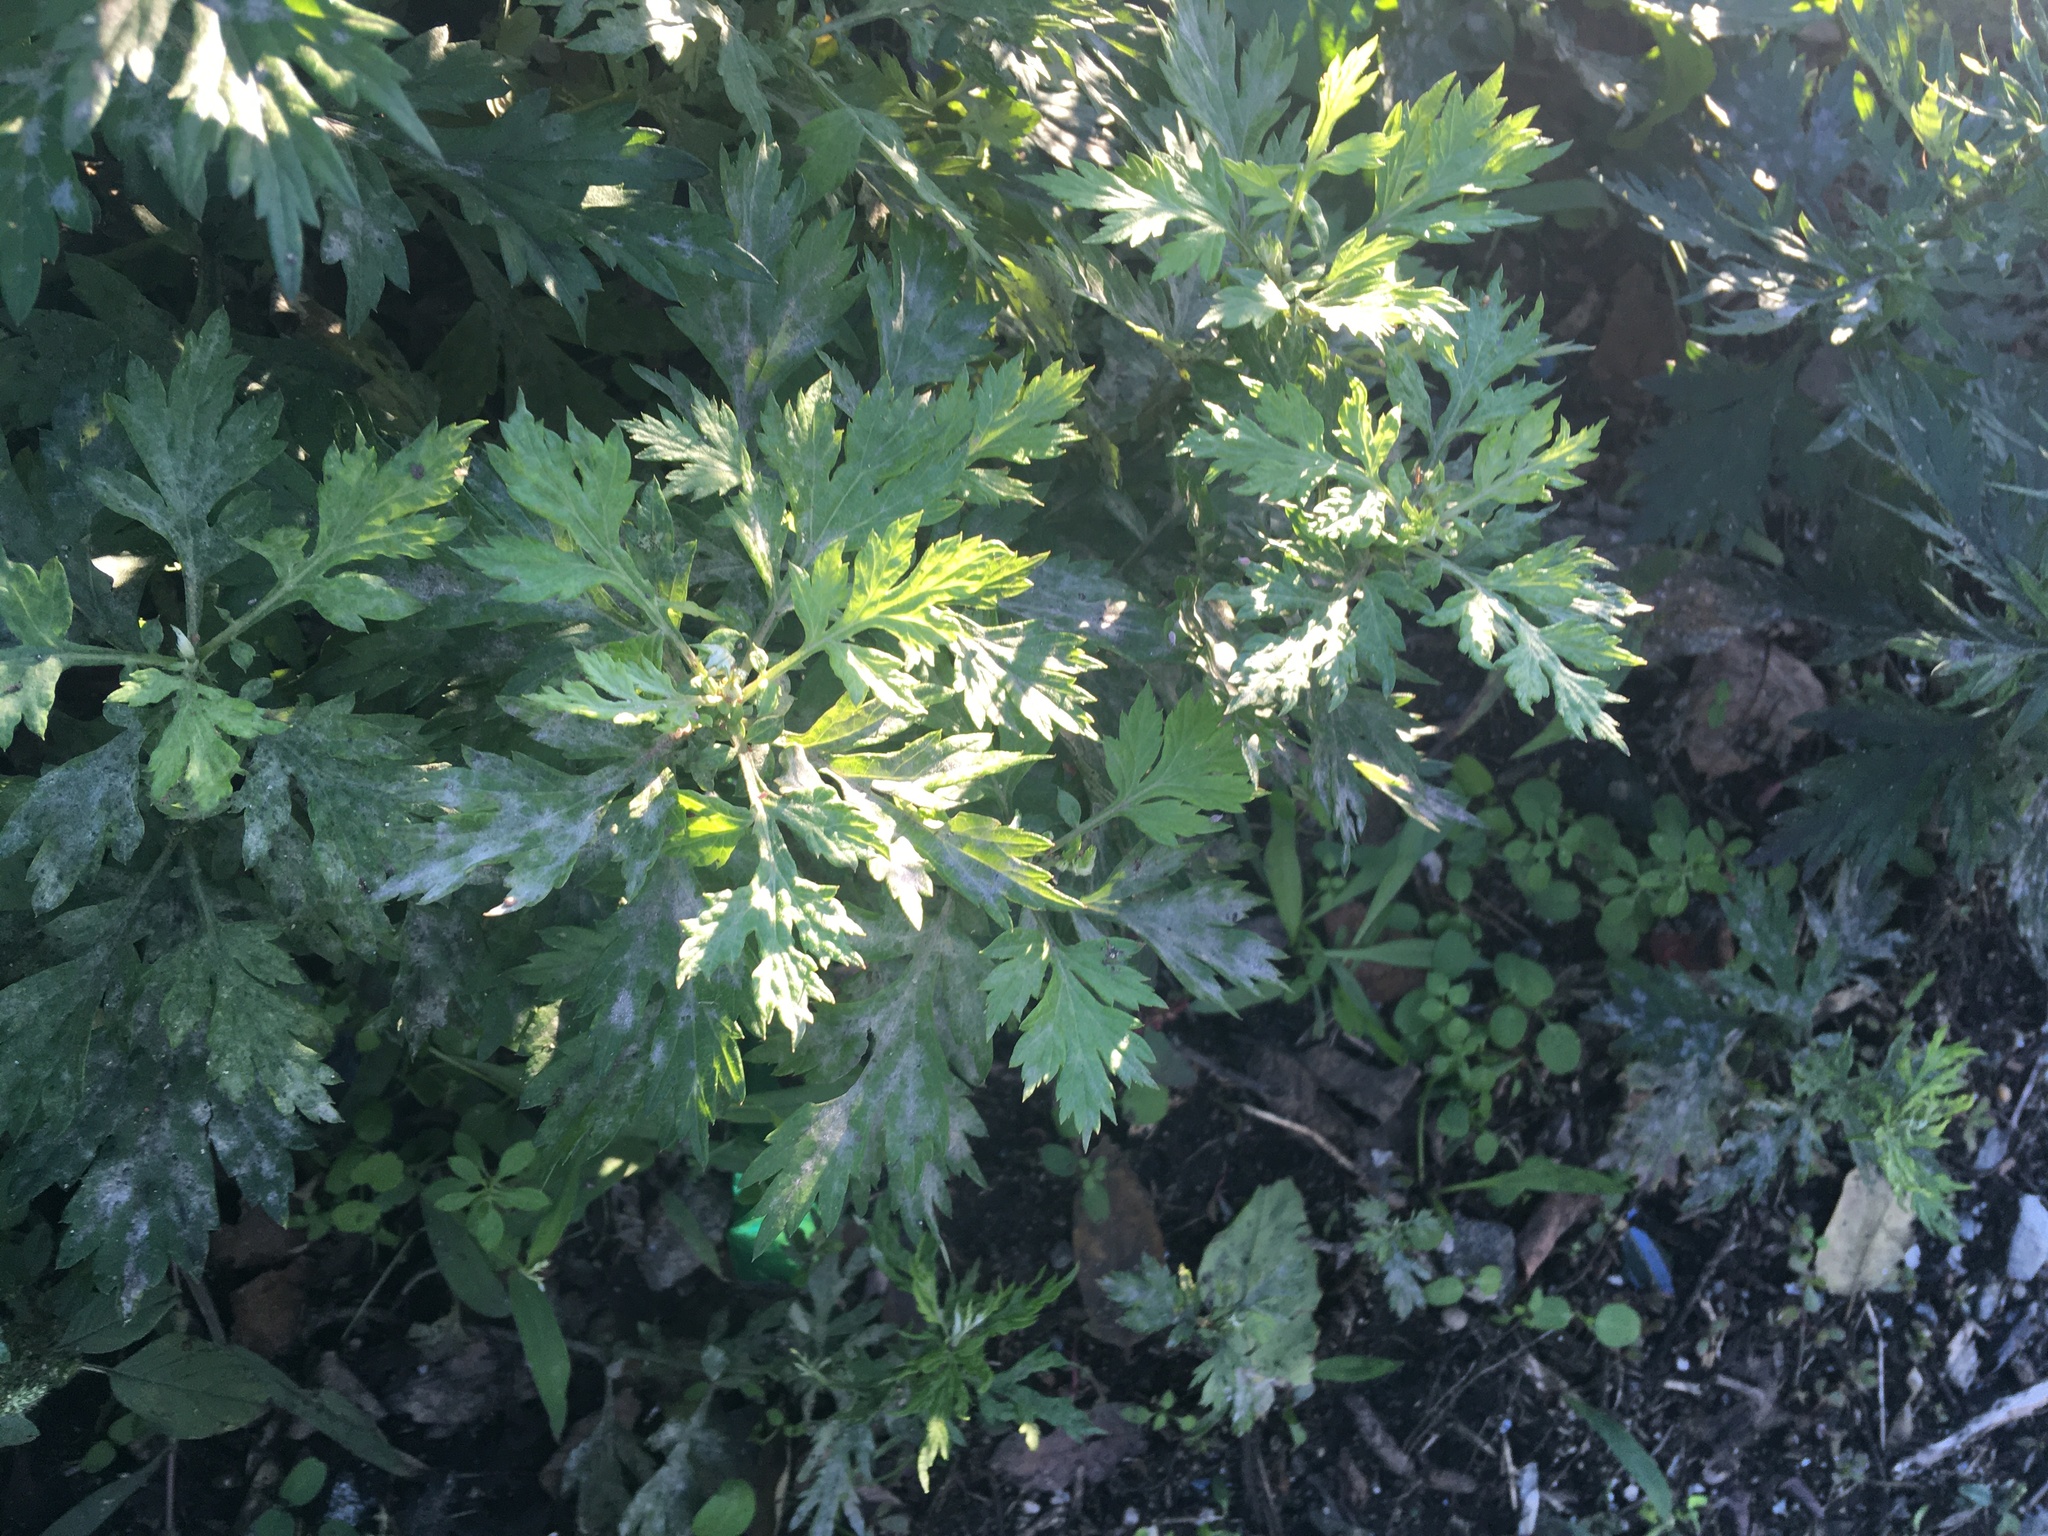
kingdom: Plantae
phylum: Tracheophyta
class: Magnoliopsida
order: Asterales
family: Asteraceae
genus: Artemisia
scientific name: Artemisia vulgaris
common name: Mugwort
